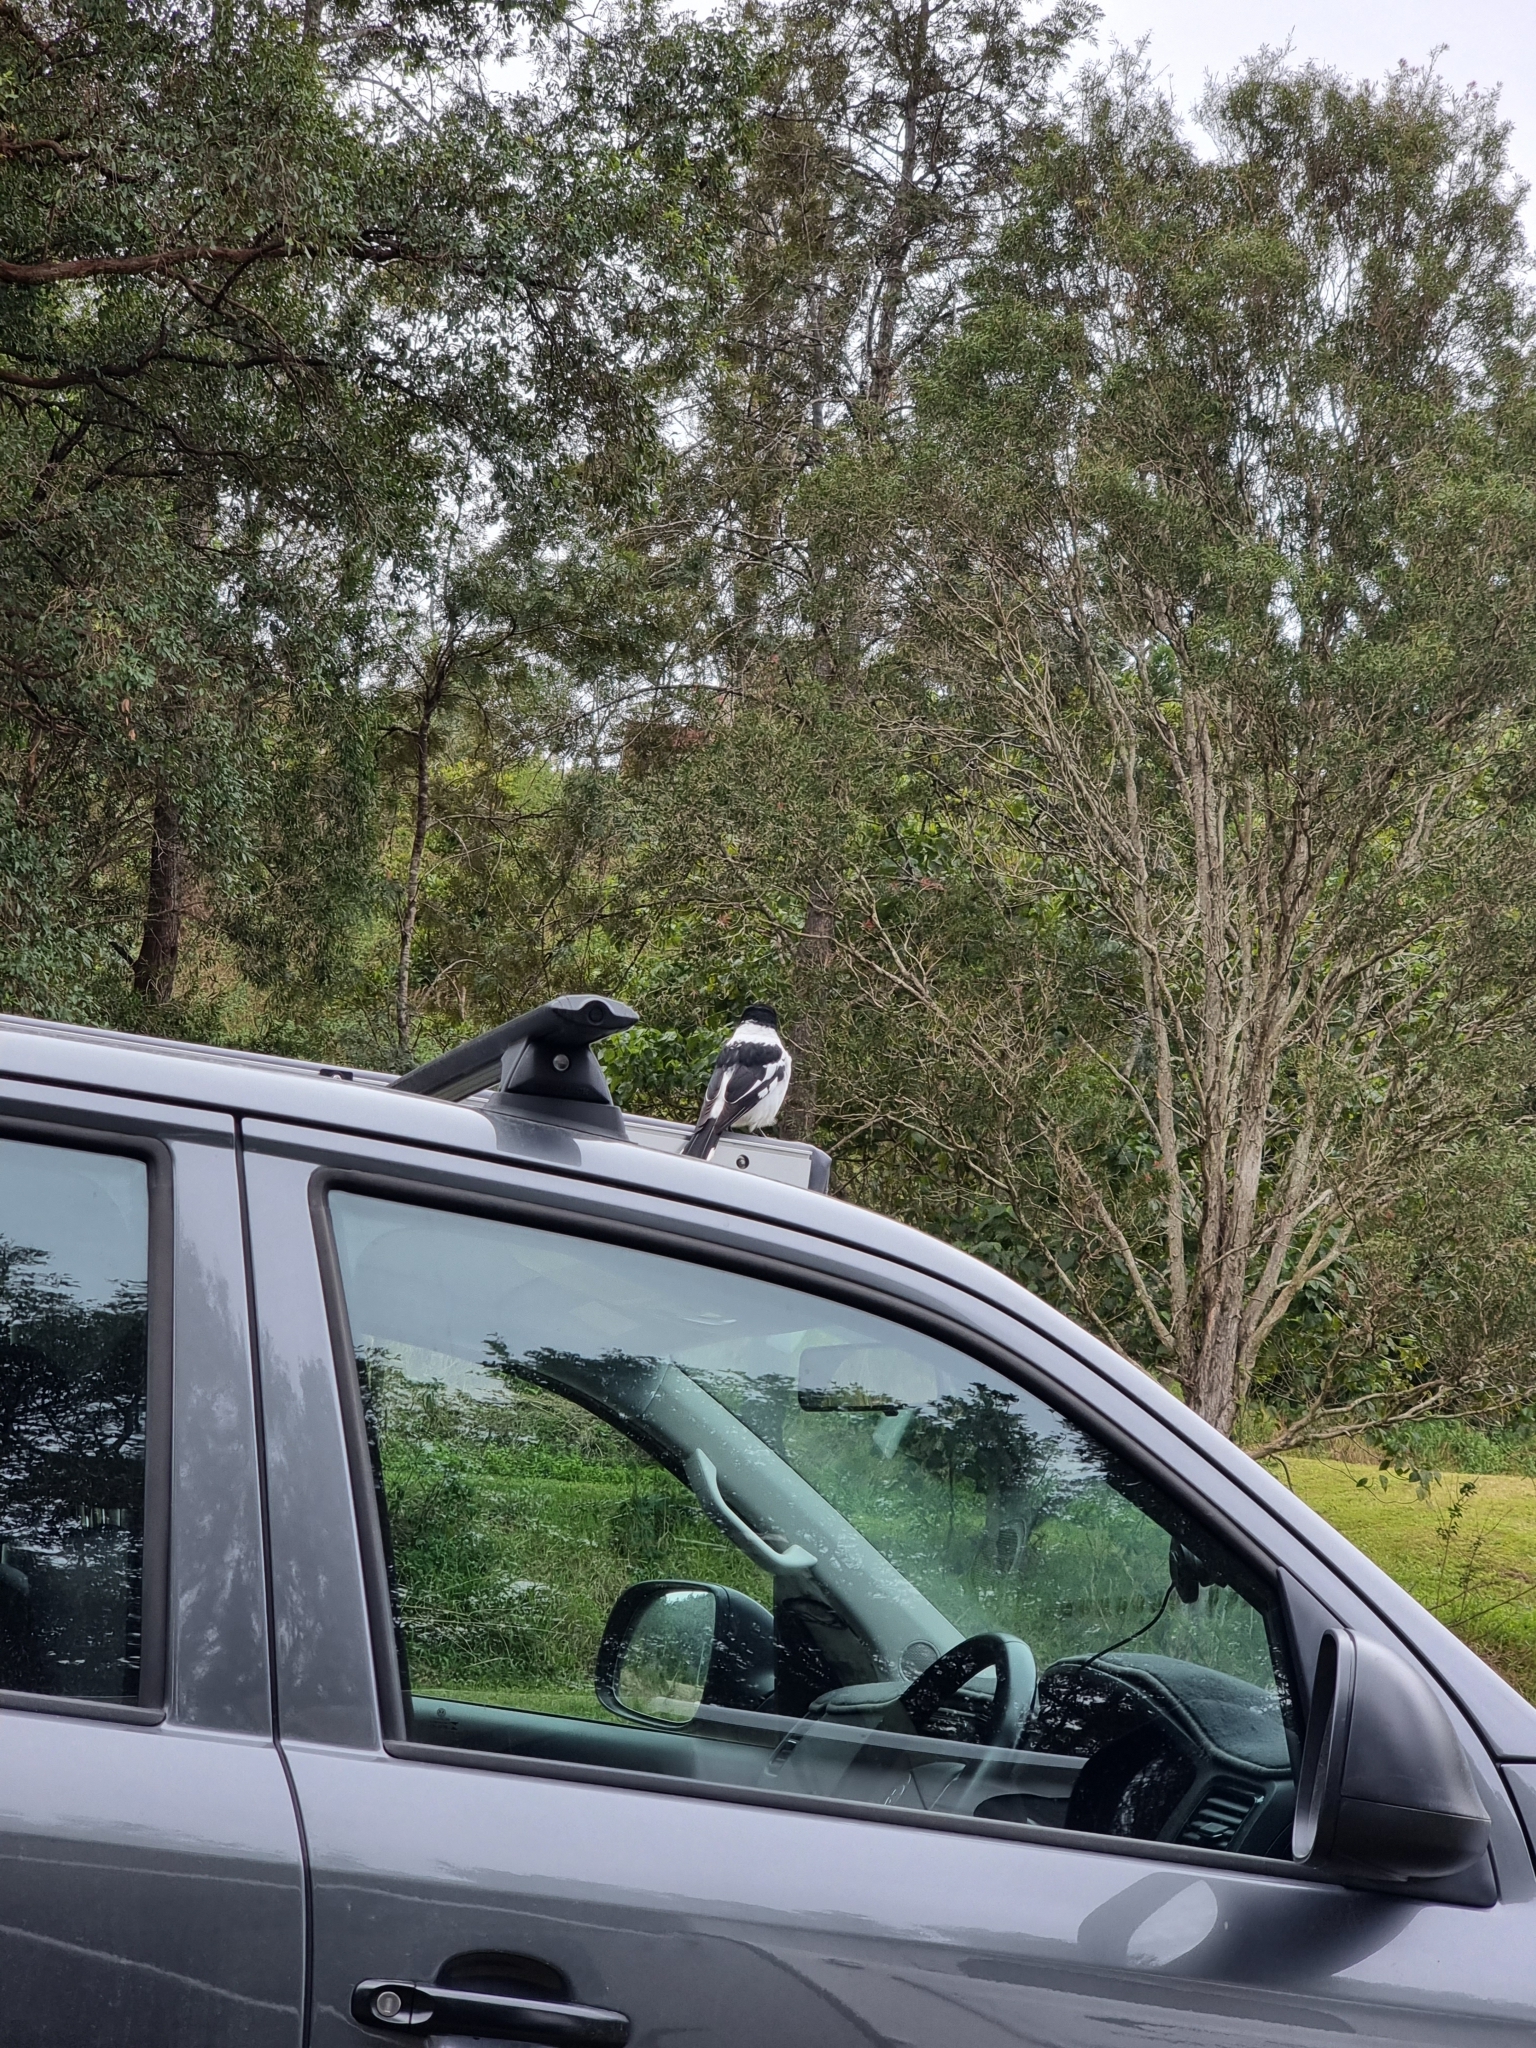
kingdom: Animalia
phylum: Chordata
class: Aves
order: Passeriformes
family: Cracticidae
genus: Cracticus
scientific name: Cracticus nigrogularis
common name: Pied butcherbird
